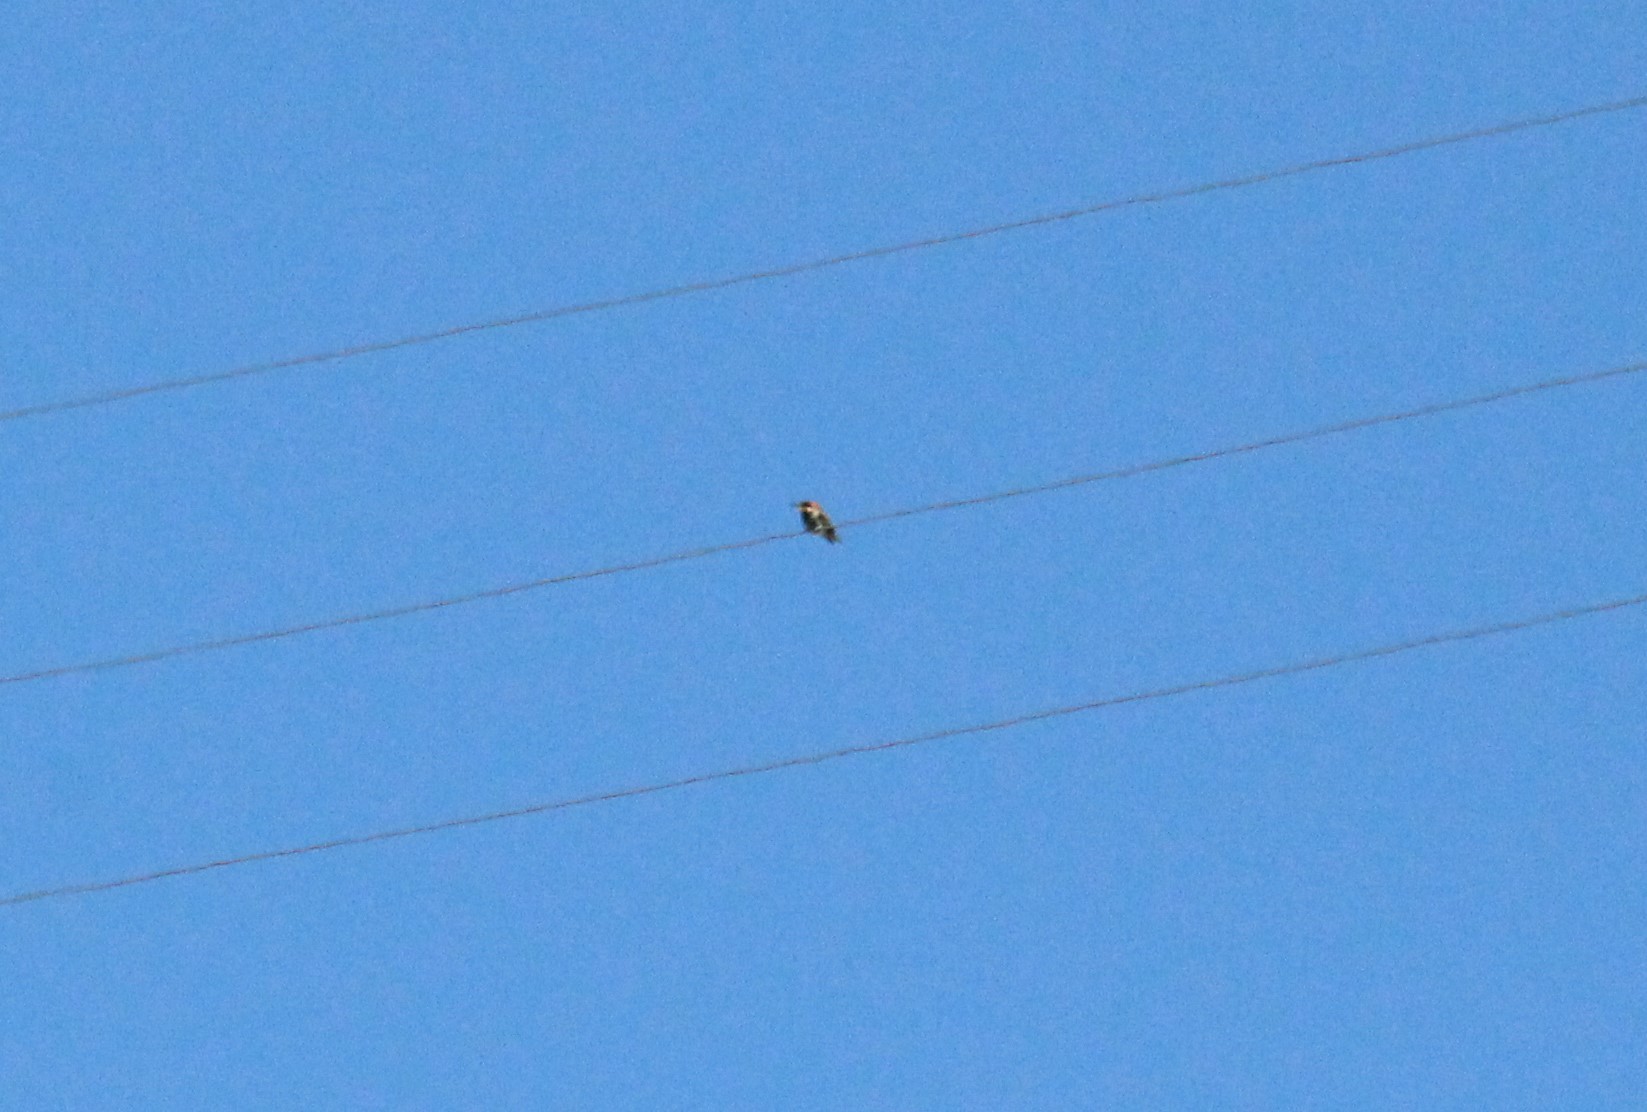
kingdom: Animalia
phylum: Chordata
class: Aves
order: Coraciiformes
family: Meropidae
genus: Merops
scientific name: Merops apiaster
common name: European bee-eater
